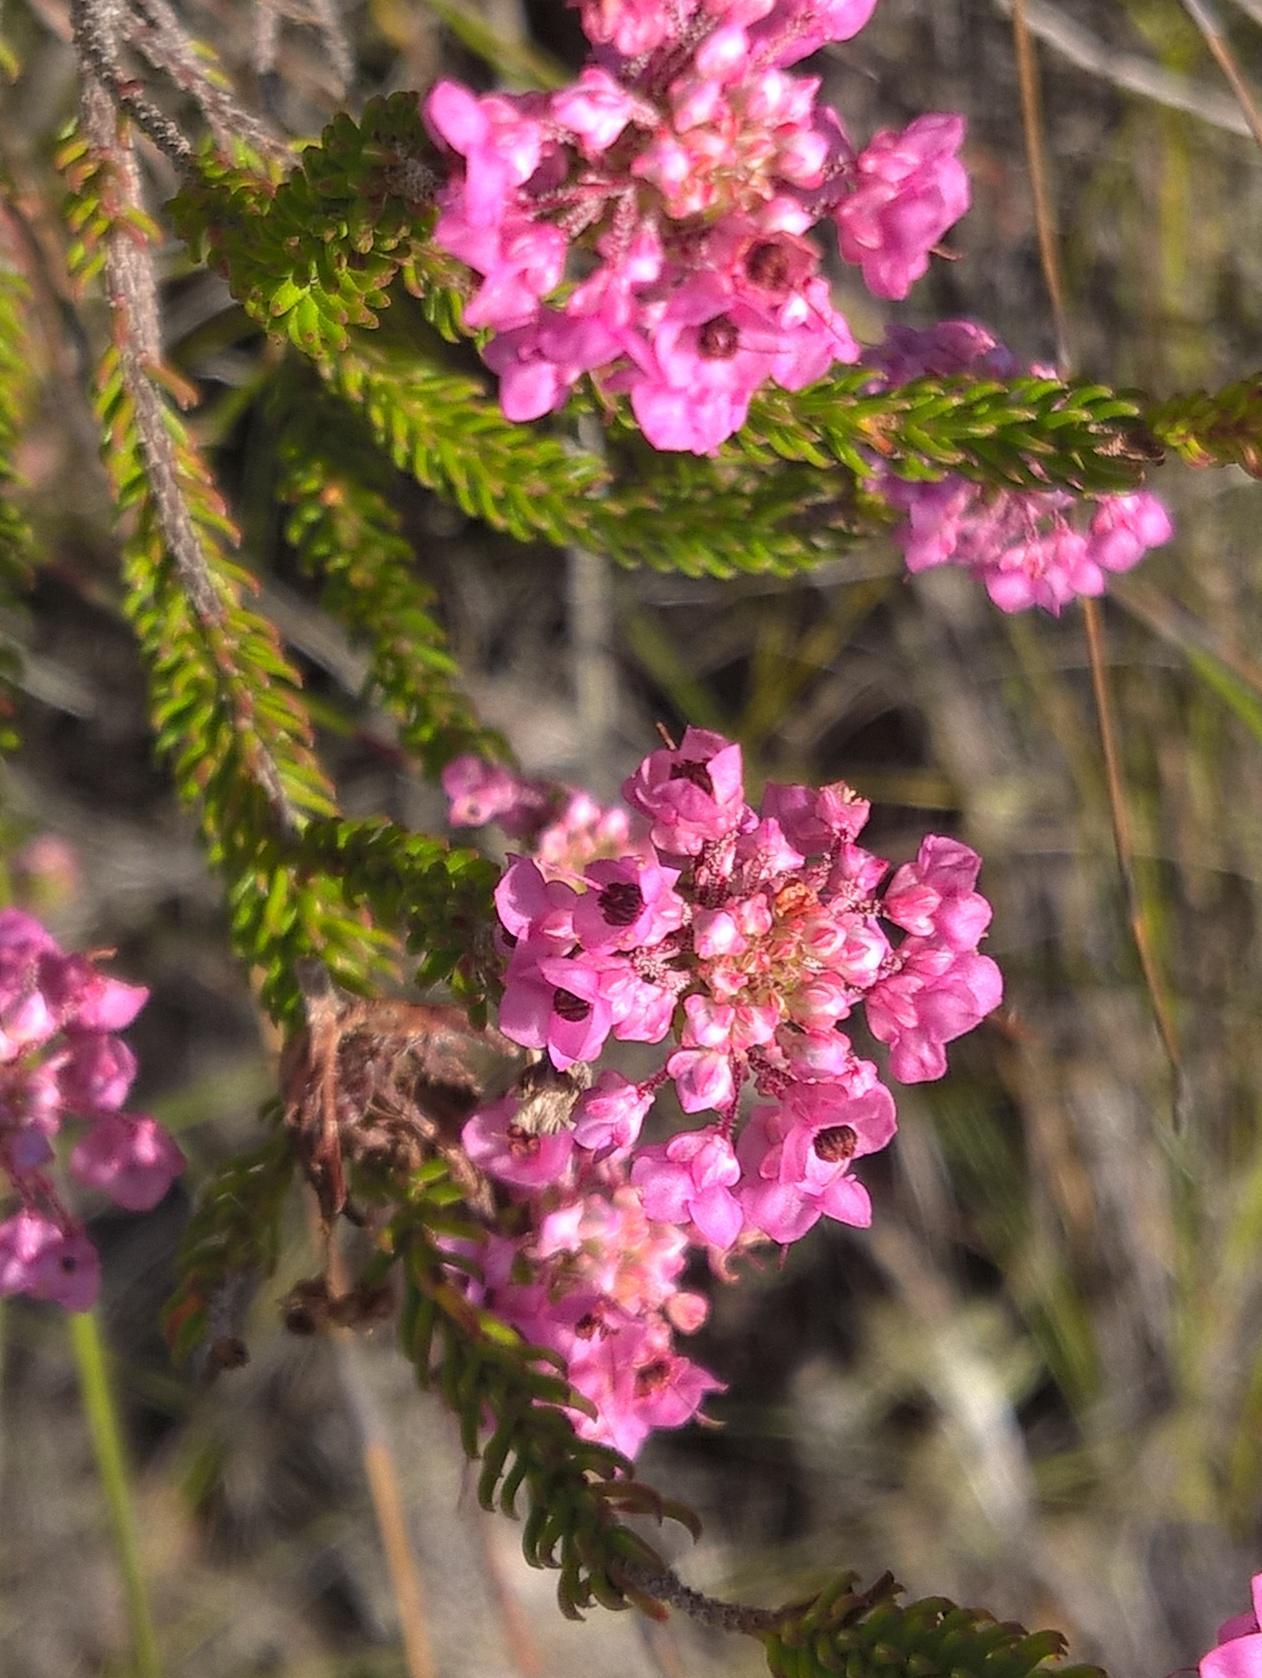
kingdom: Plantae
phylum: Tracheophyta
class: Magnoliopsida
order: Ericales
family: Ericaceae
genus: Erica
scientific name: Erica seriphiifolia
